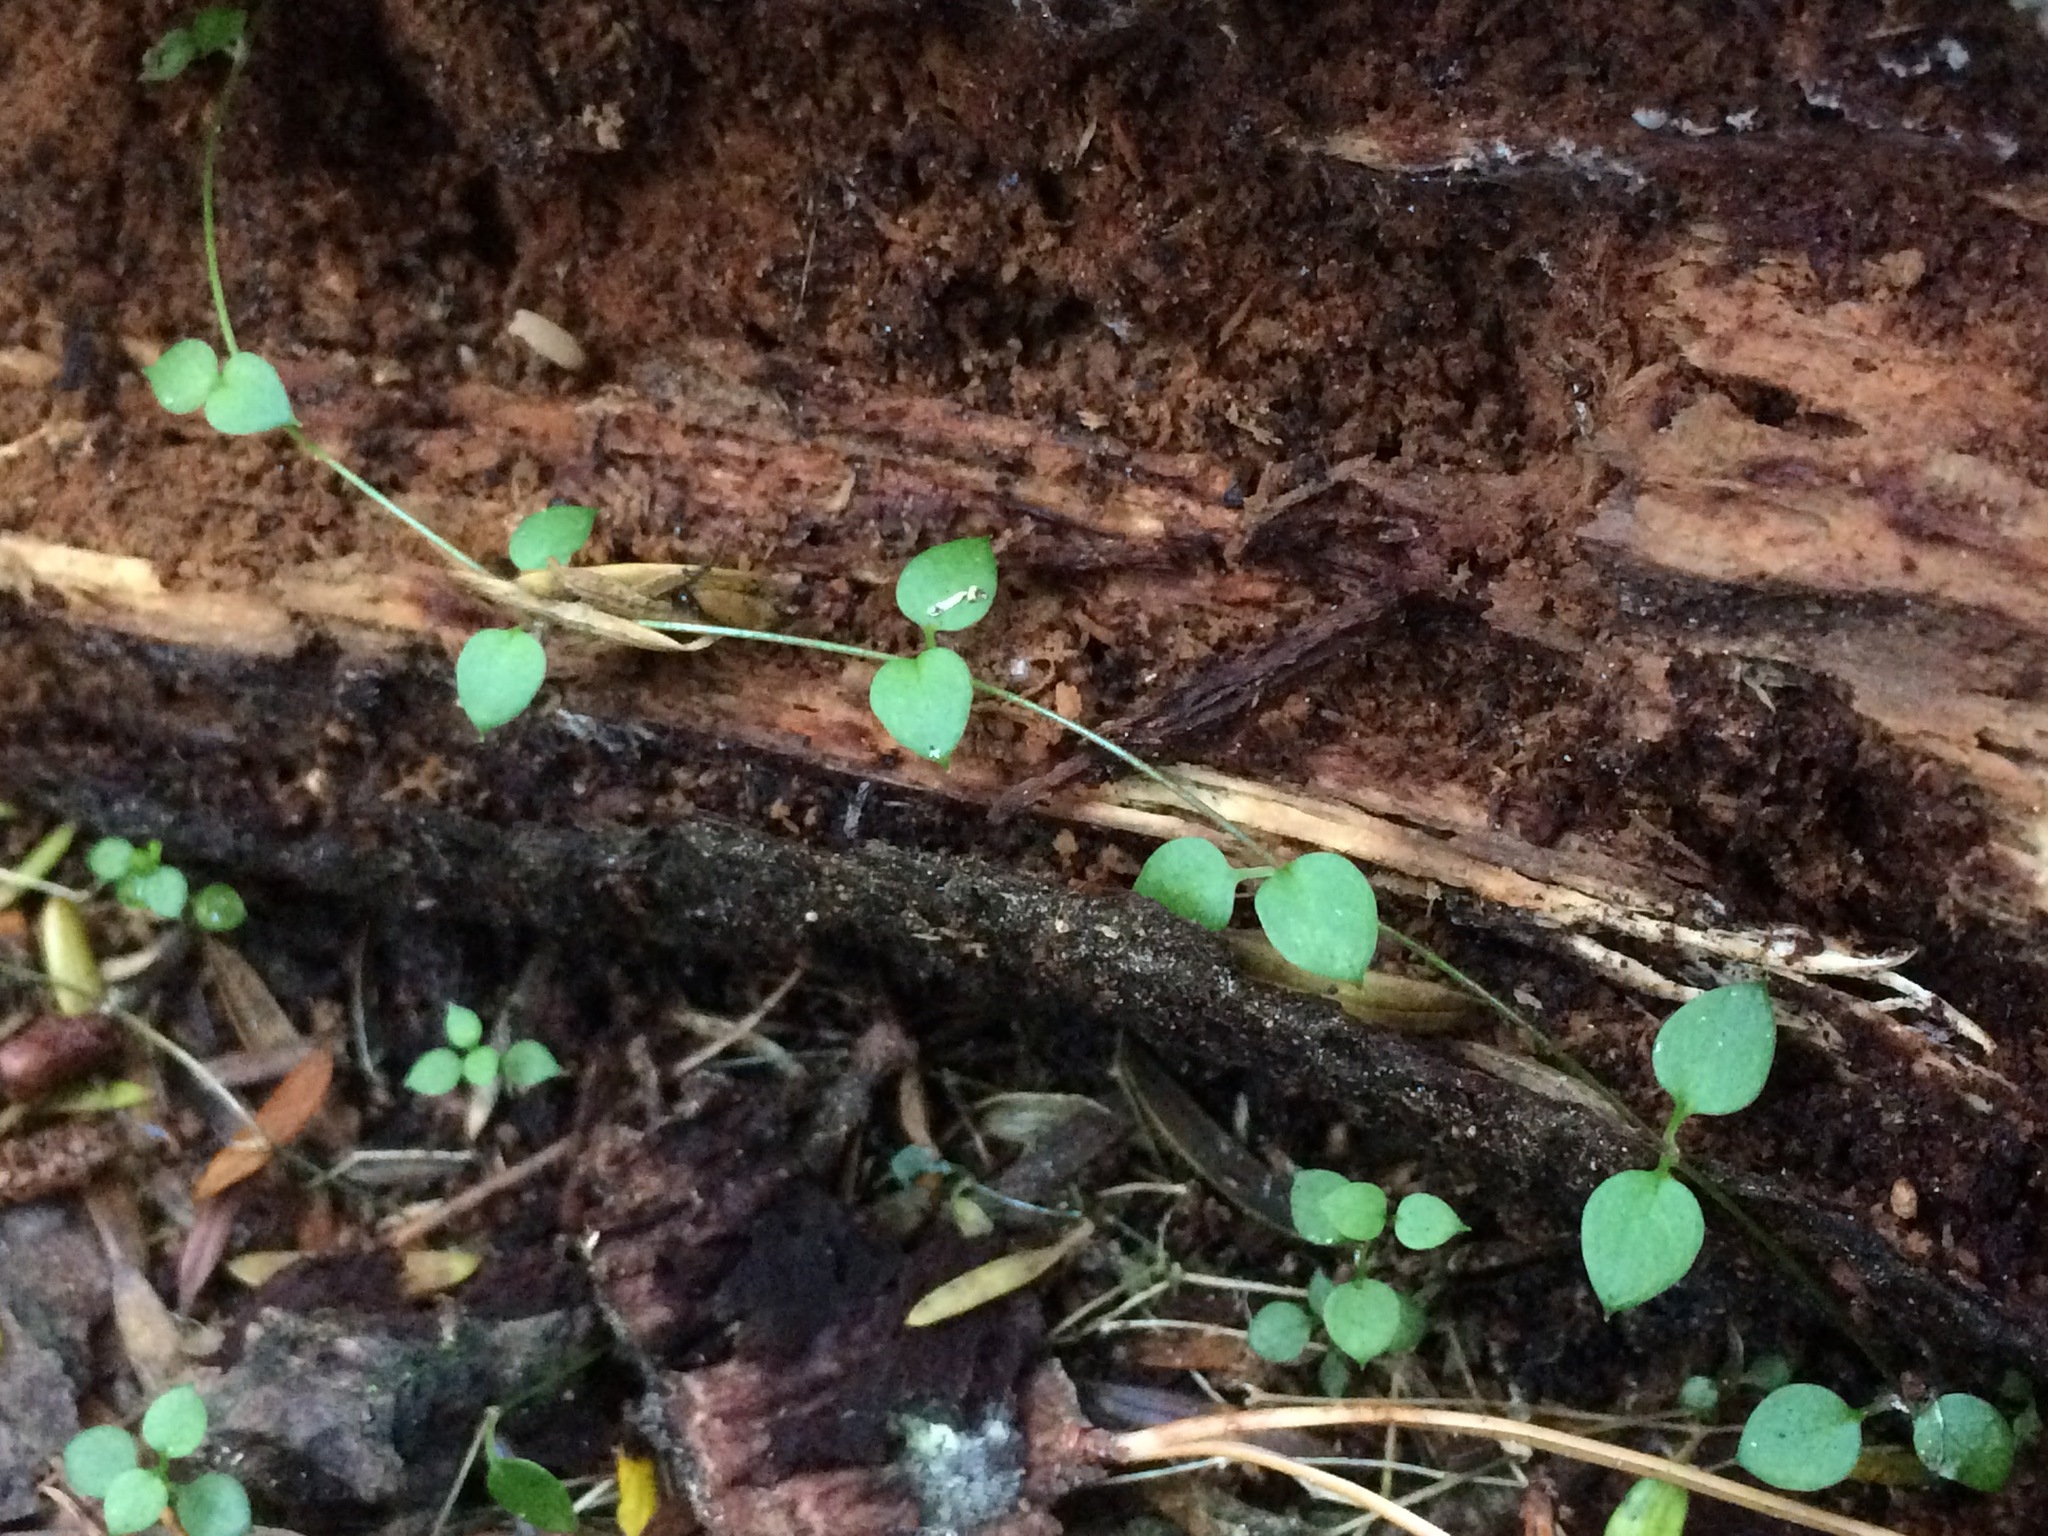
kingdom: Plantae
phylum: Tracheophyta
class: Magnoliopsida
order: Caryophyllales
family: Caryophyllaceae
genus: Stellaria
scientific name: Stellaria parviflora
